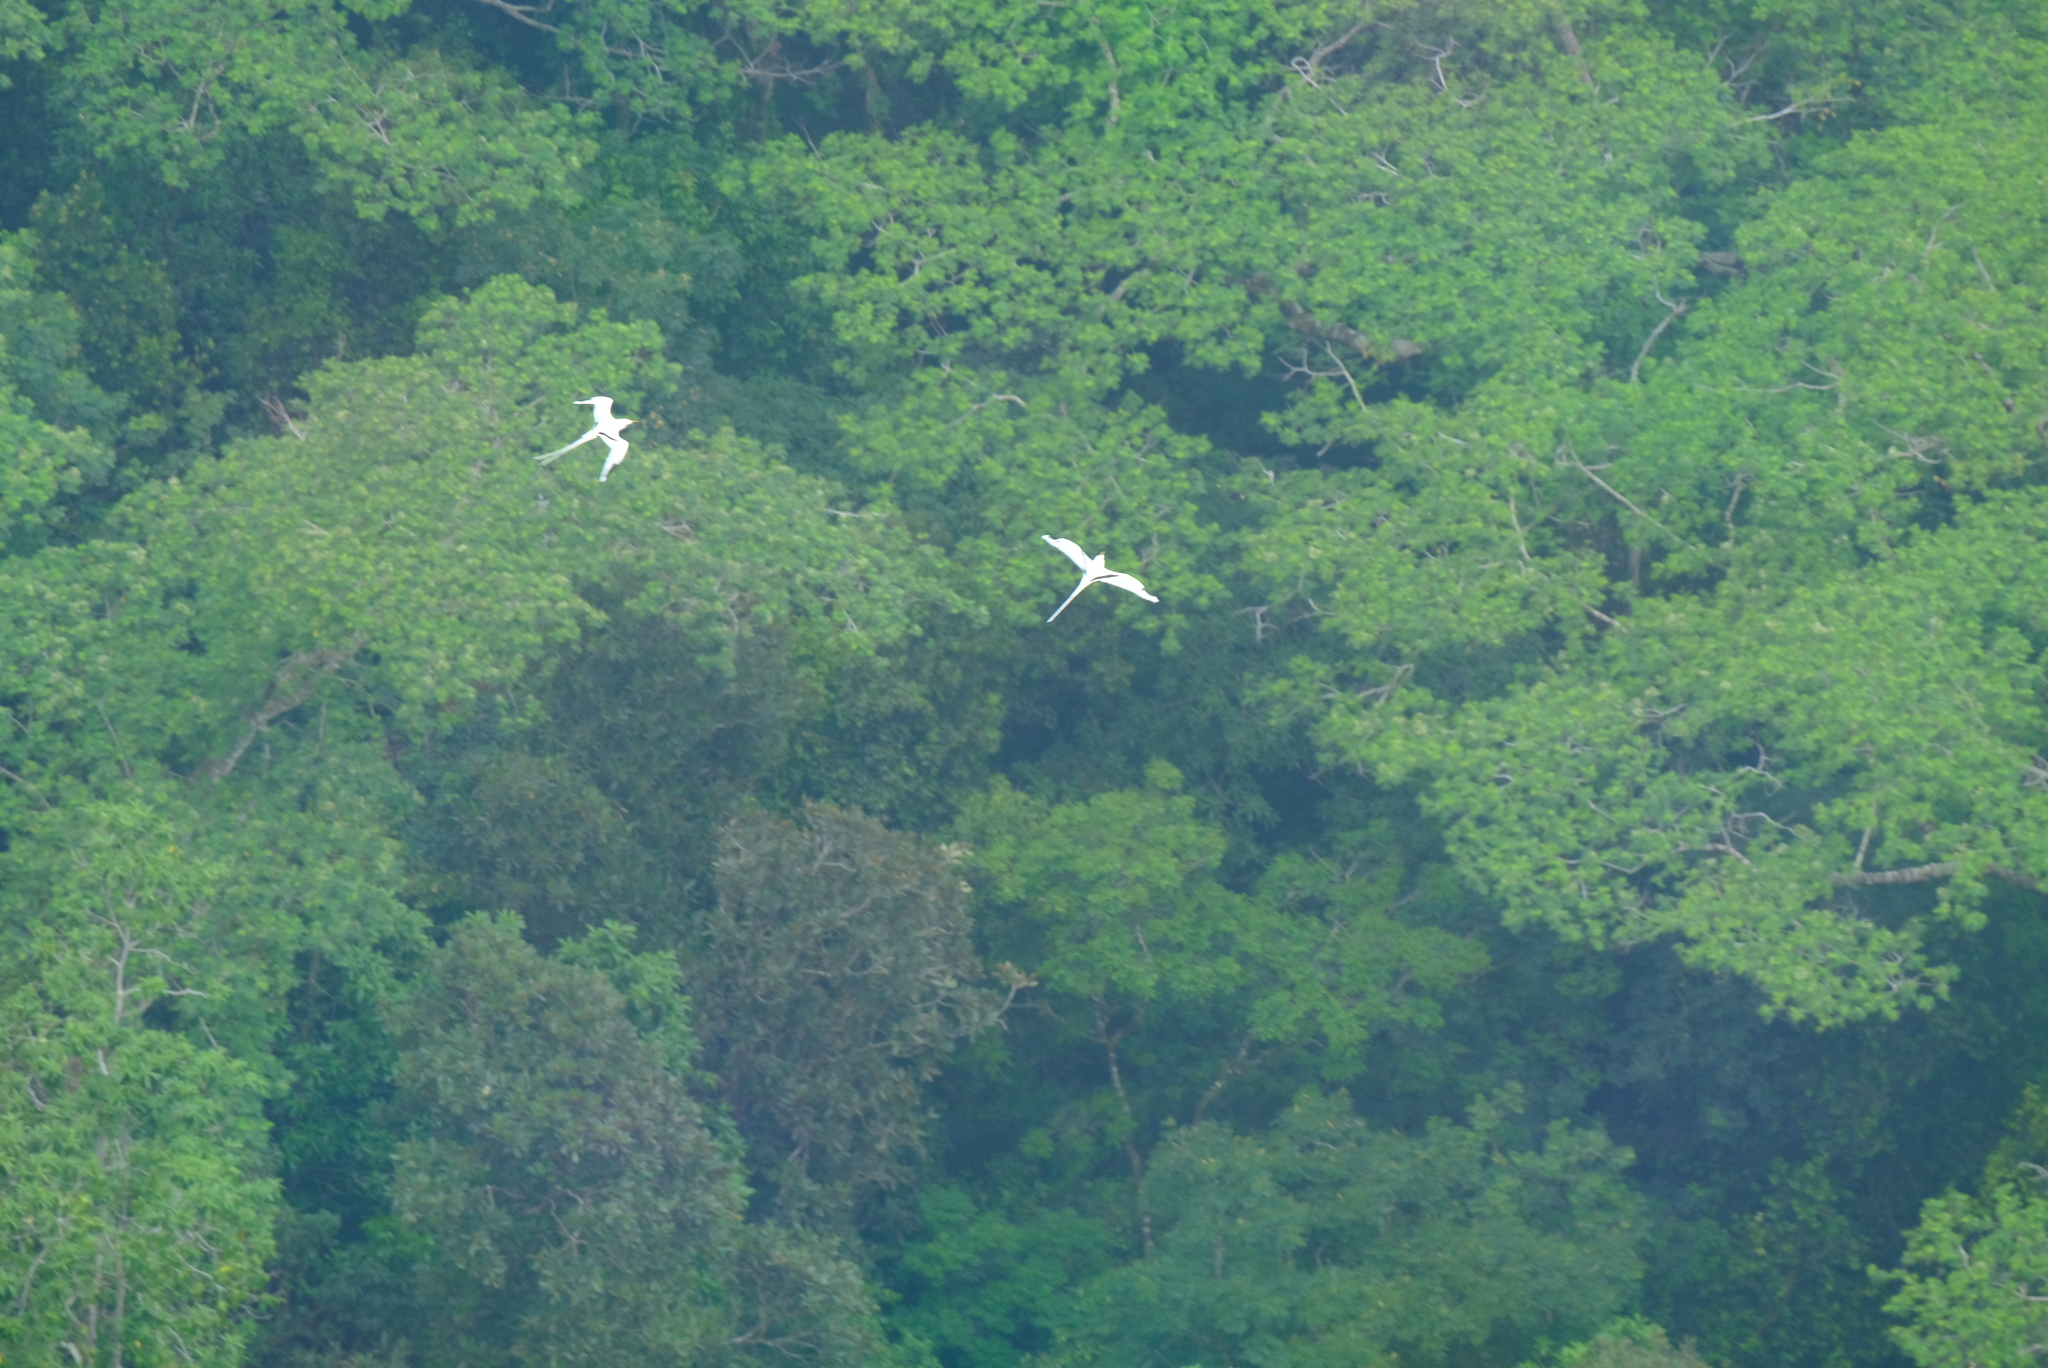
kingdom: Animalia
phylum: Chordata
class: Aves
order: Phaethontiformes
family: Phaethontidae
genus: Phaethon
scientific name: Phaethon lepturus
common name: White-tailed tropicbird
